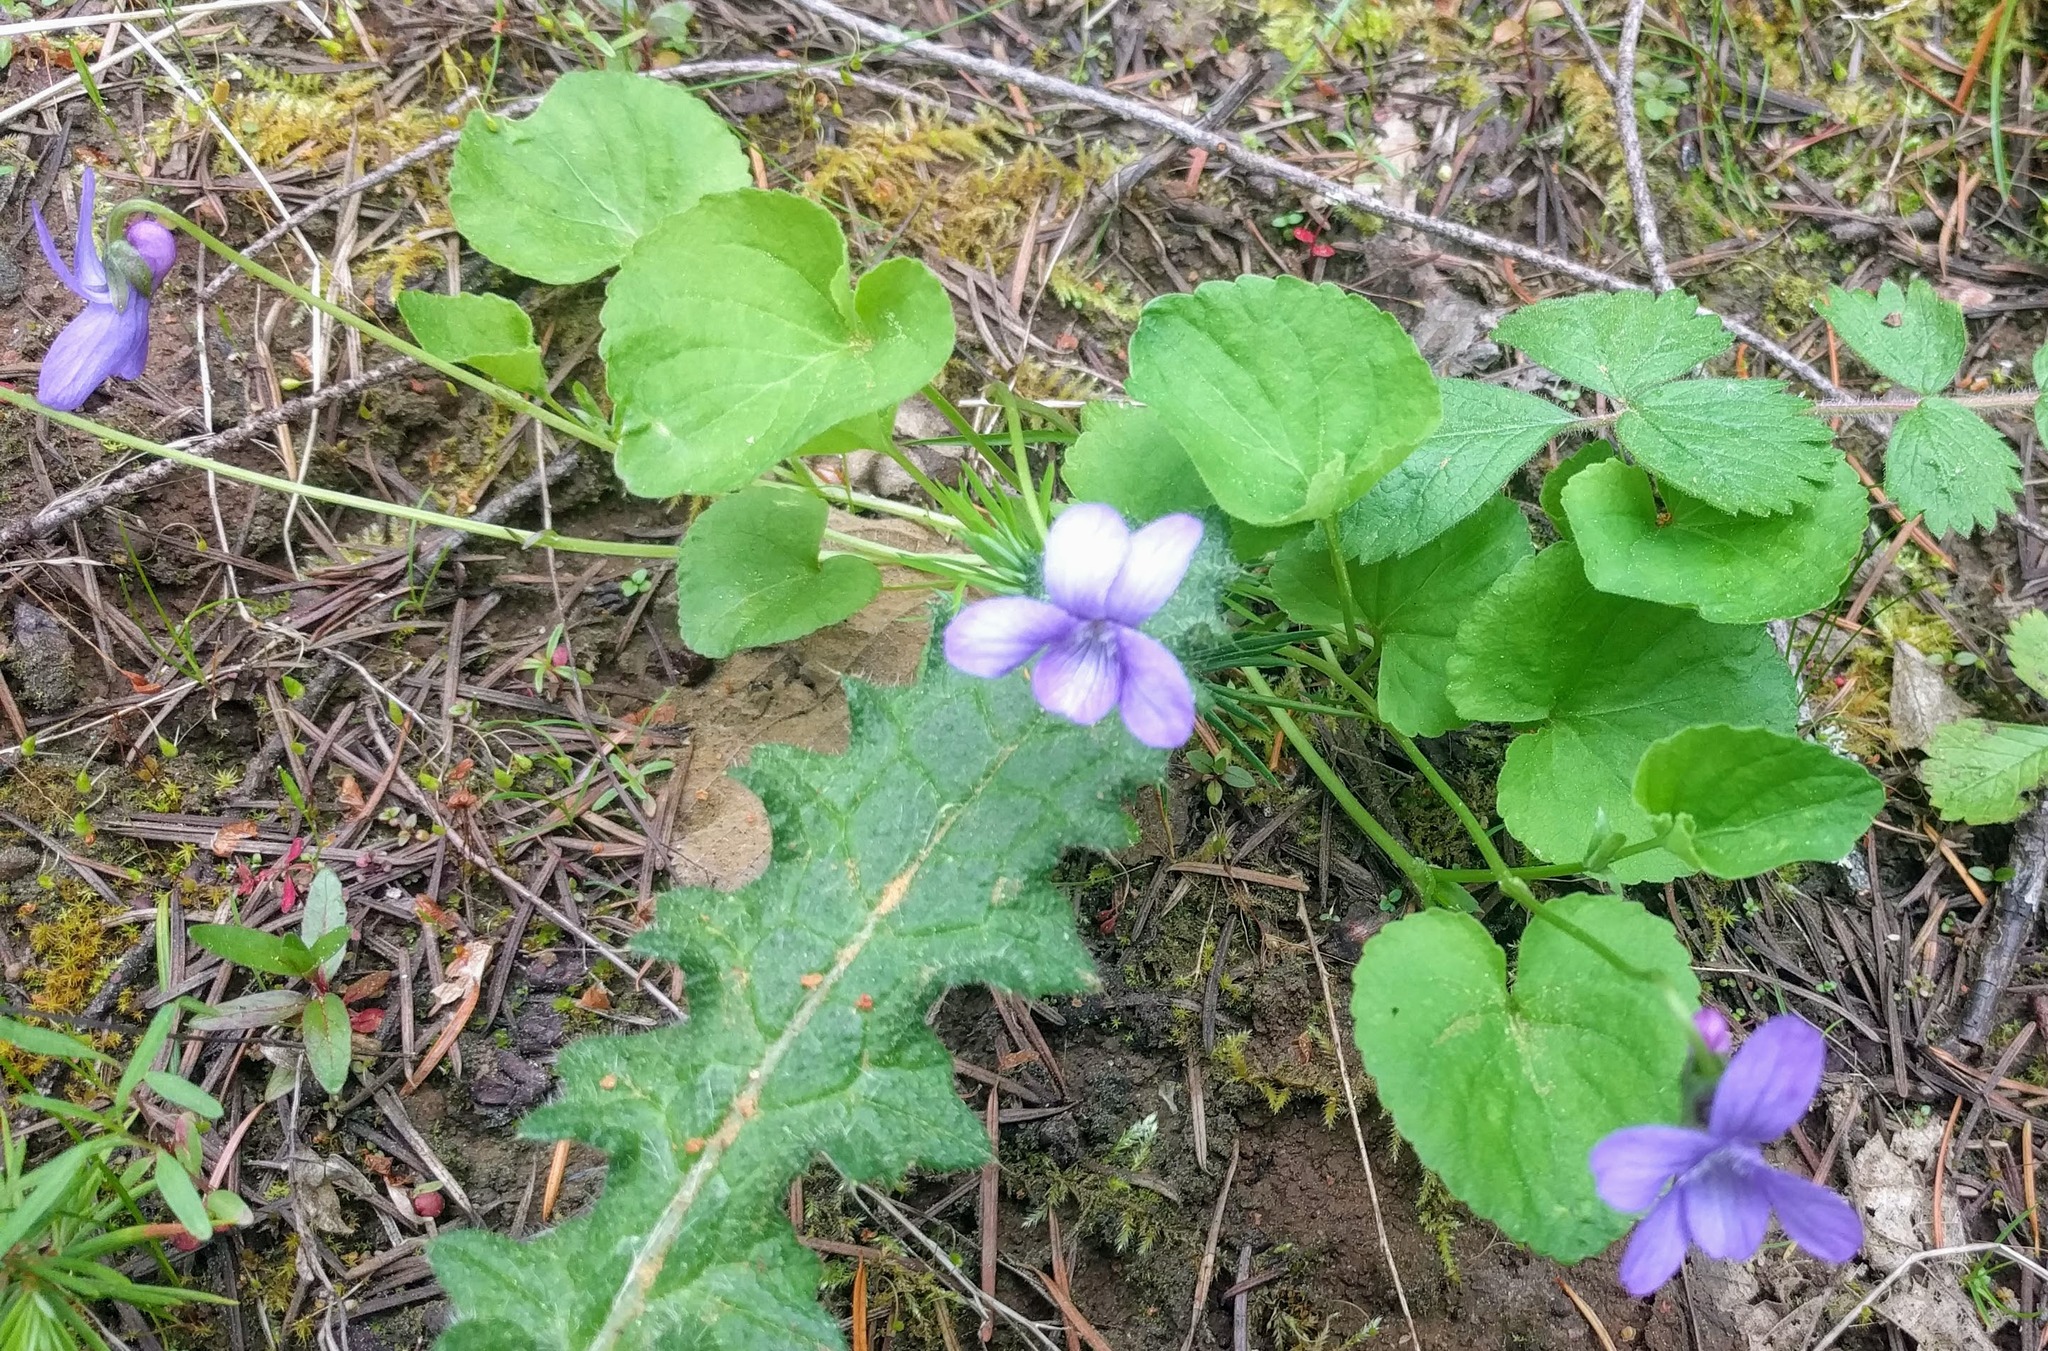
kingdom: Plantae
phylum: Tracheophyta
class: Magnoliopsida
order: Malpighiales
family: Violaceae
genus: Viola
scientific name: Viola howellii
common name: Howell's violet
